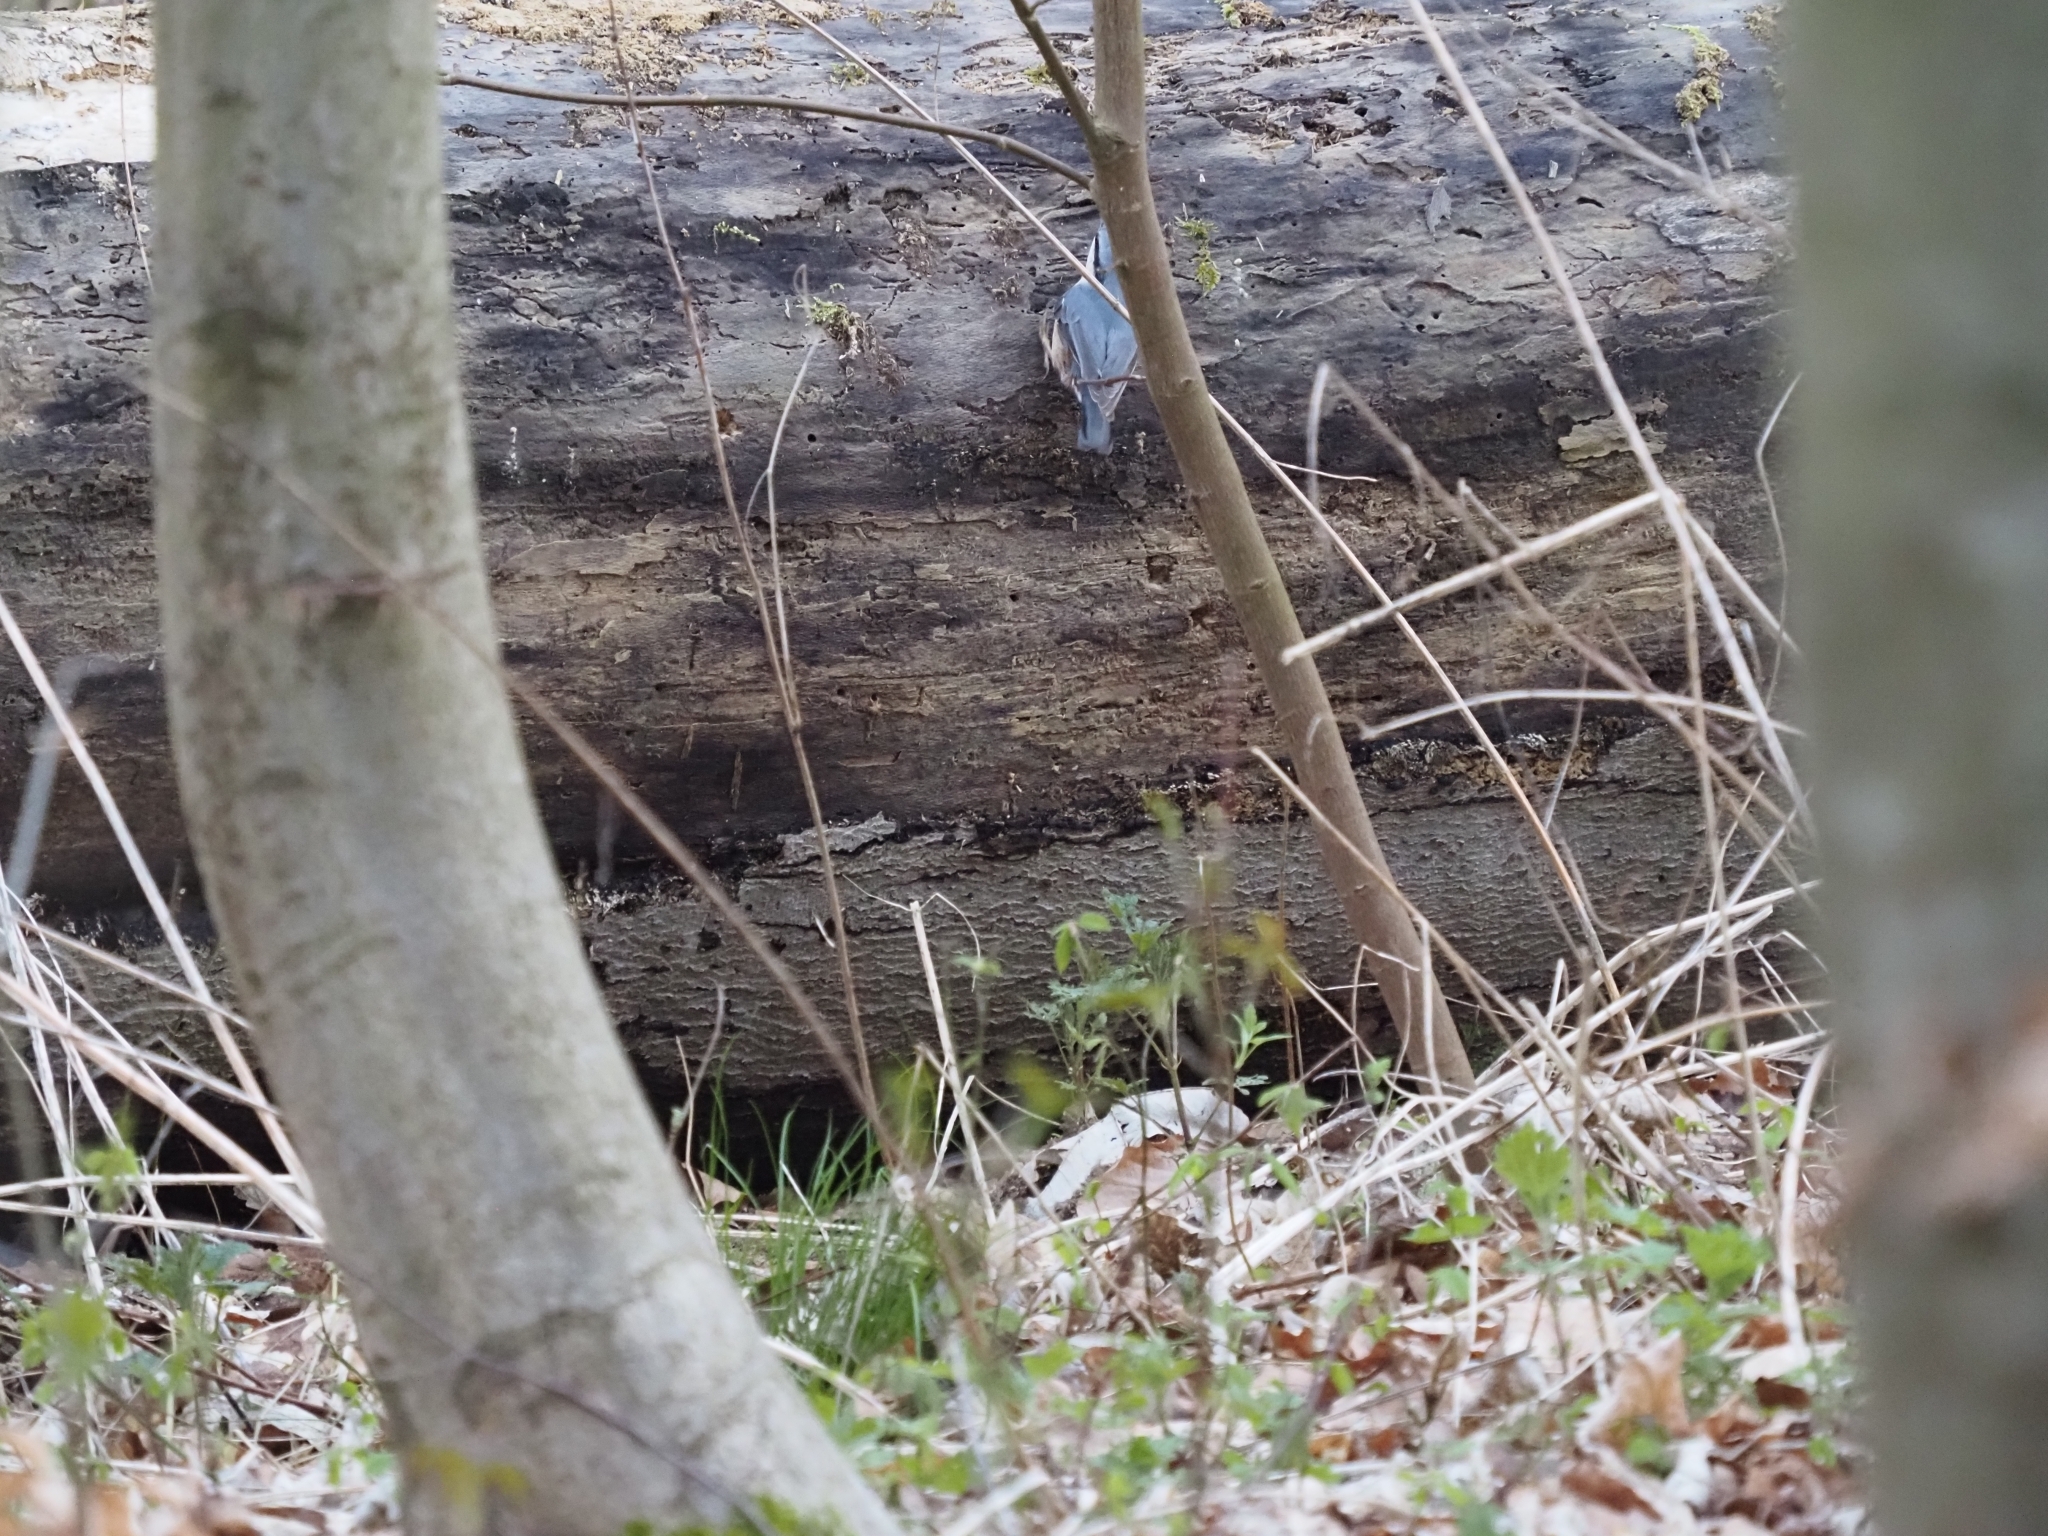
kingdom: Animalia
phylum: Chordata
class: Aves
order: Passeriformes
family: Sittidae
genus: Sitta
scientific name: Sitta europaea
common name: Eurasian nuthatch
